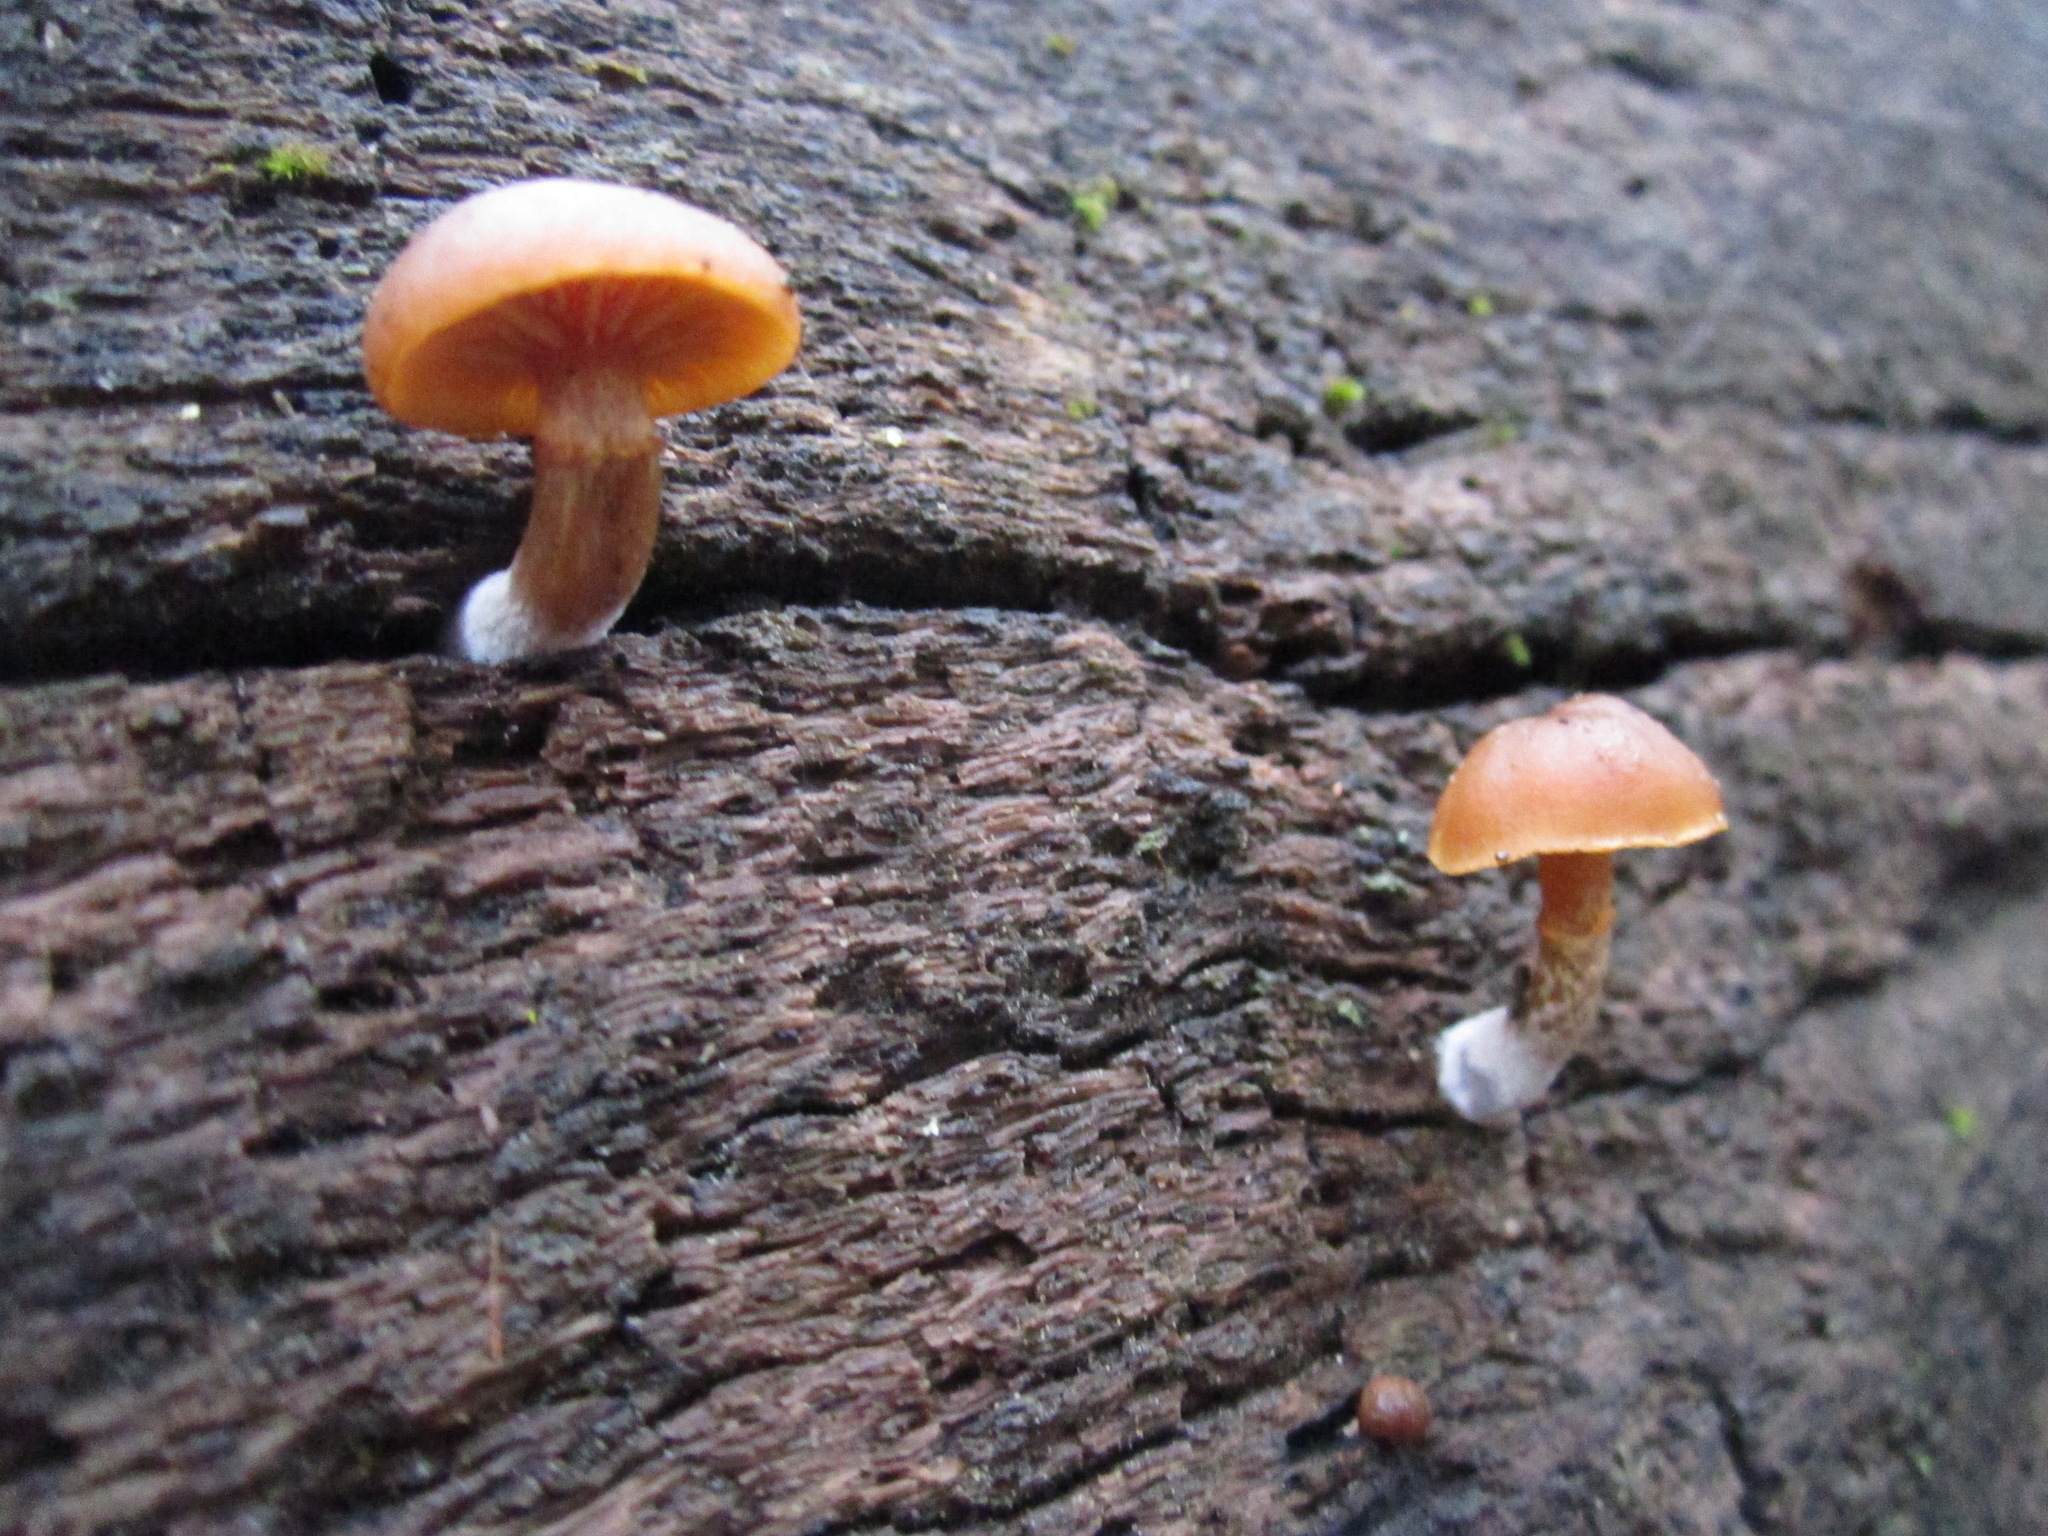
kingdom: Fungi
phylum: Basidiomycota
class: Agaricomycetes
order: Agaricales
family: Hymenogastraceae
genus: Galerina
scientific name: Galerina marginata
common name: Funeral bell
